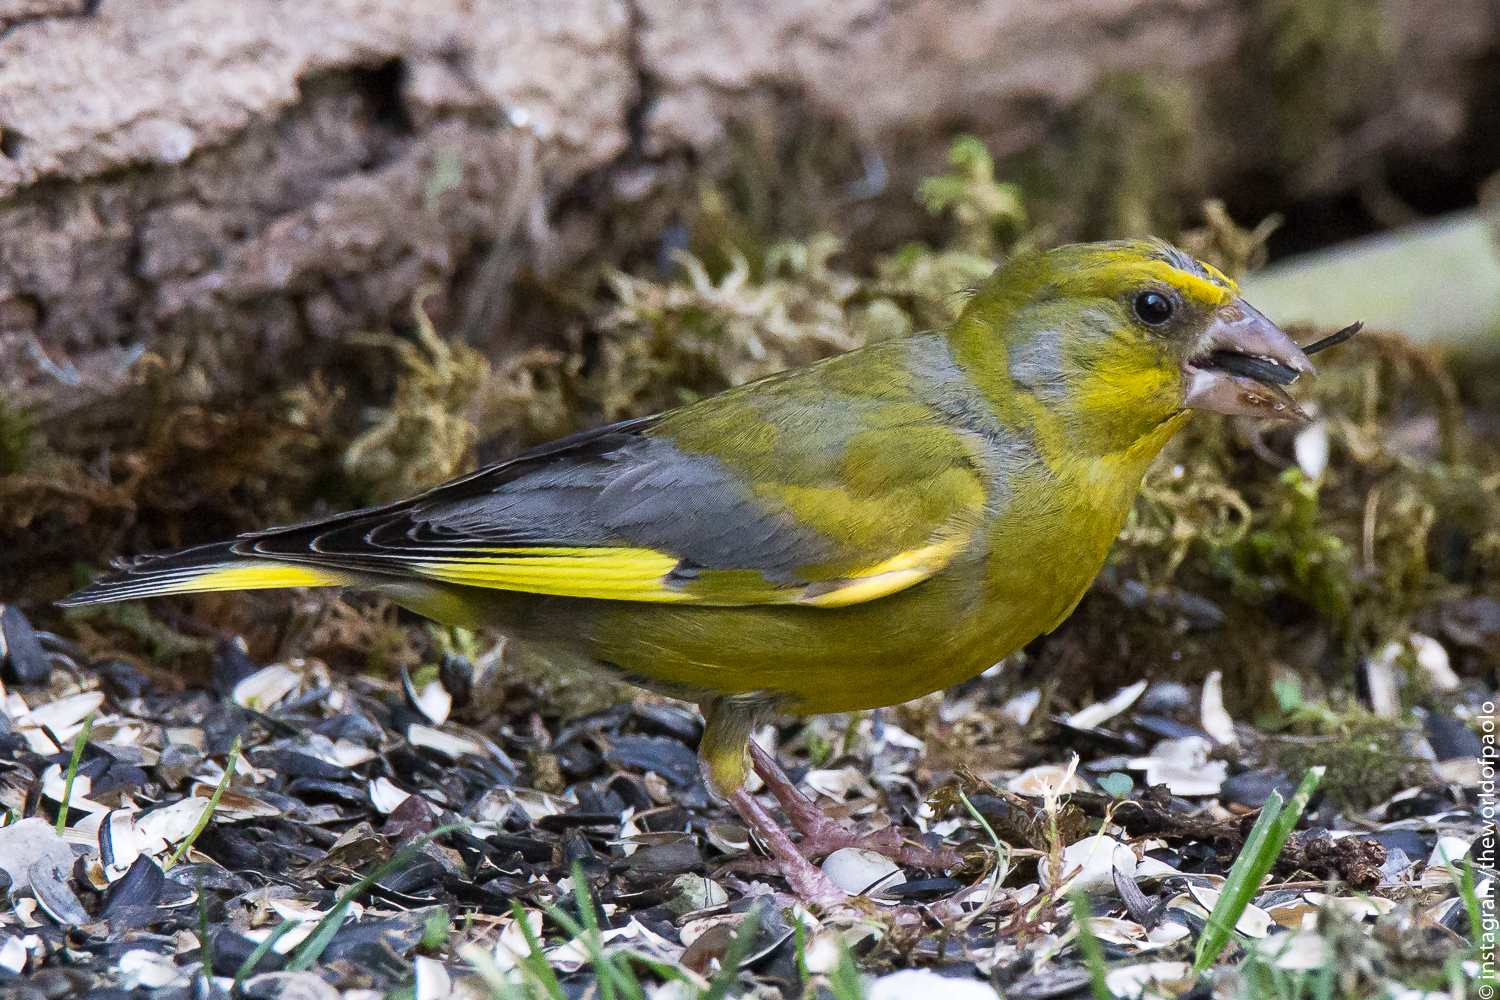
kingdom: Plantae
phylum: Tracheophyta
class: Liliopsida
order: Poales
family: Poaceae
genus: Chloris
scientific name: Chloris chloris
